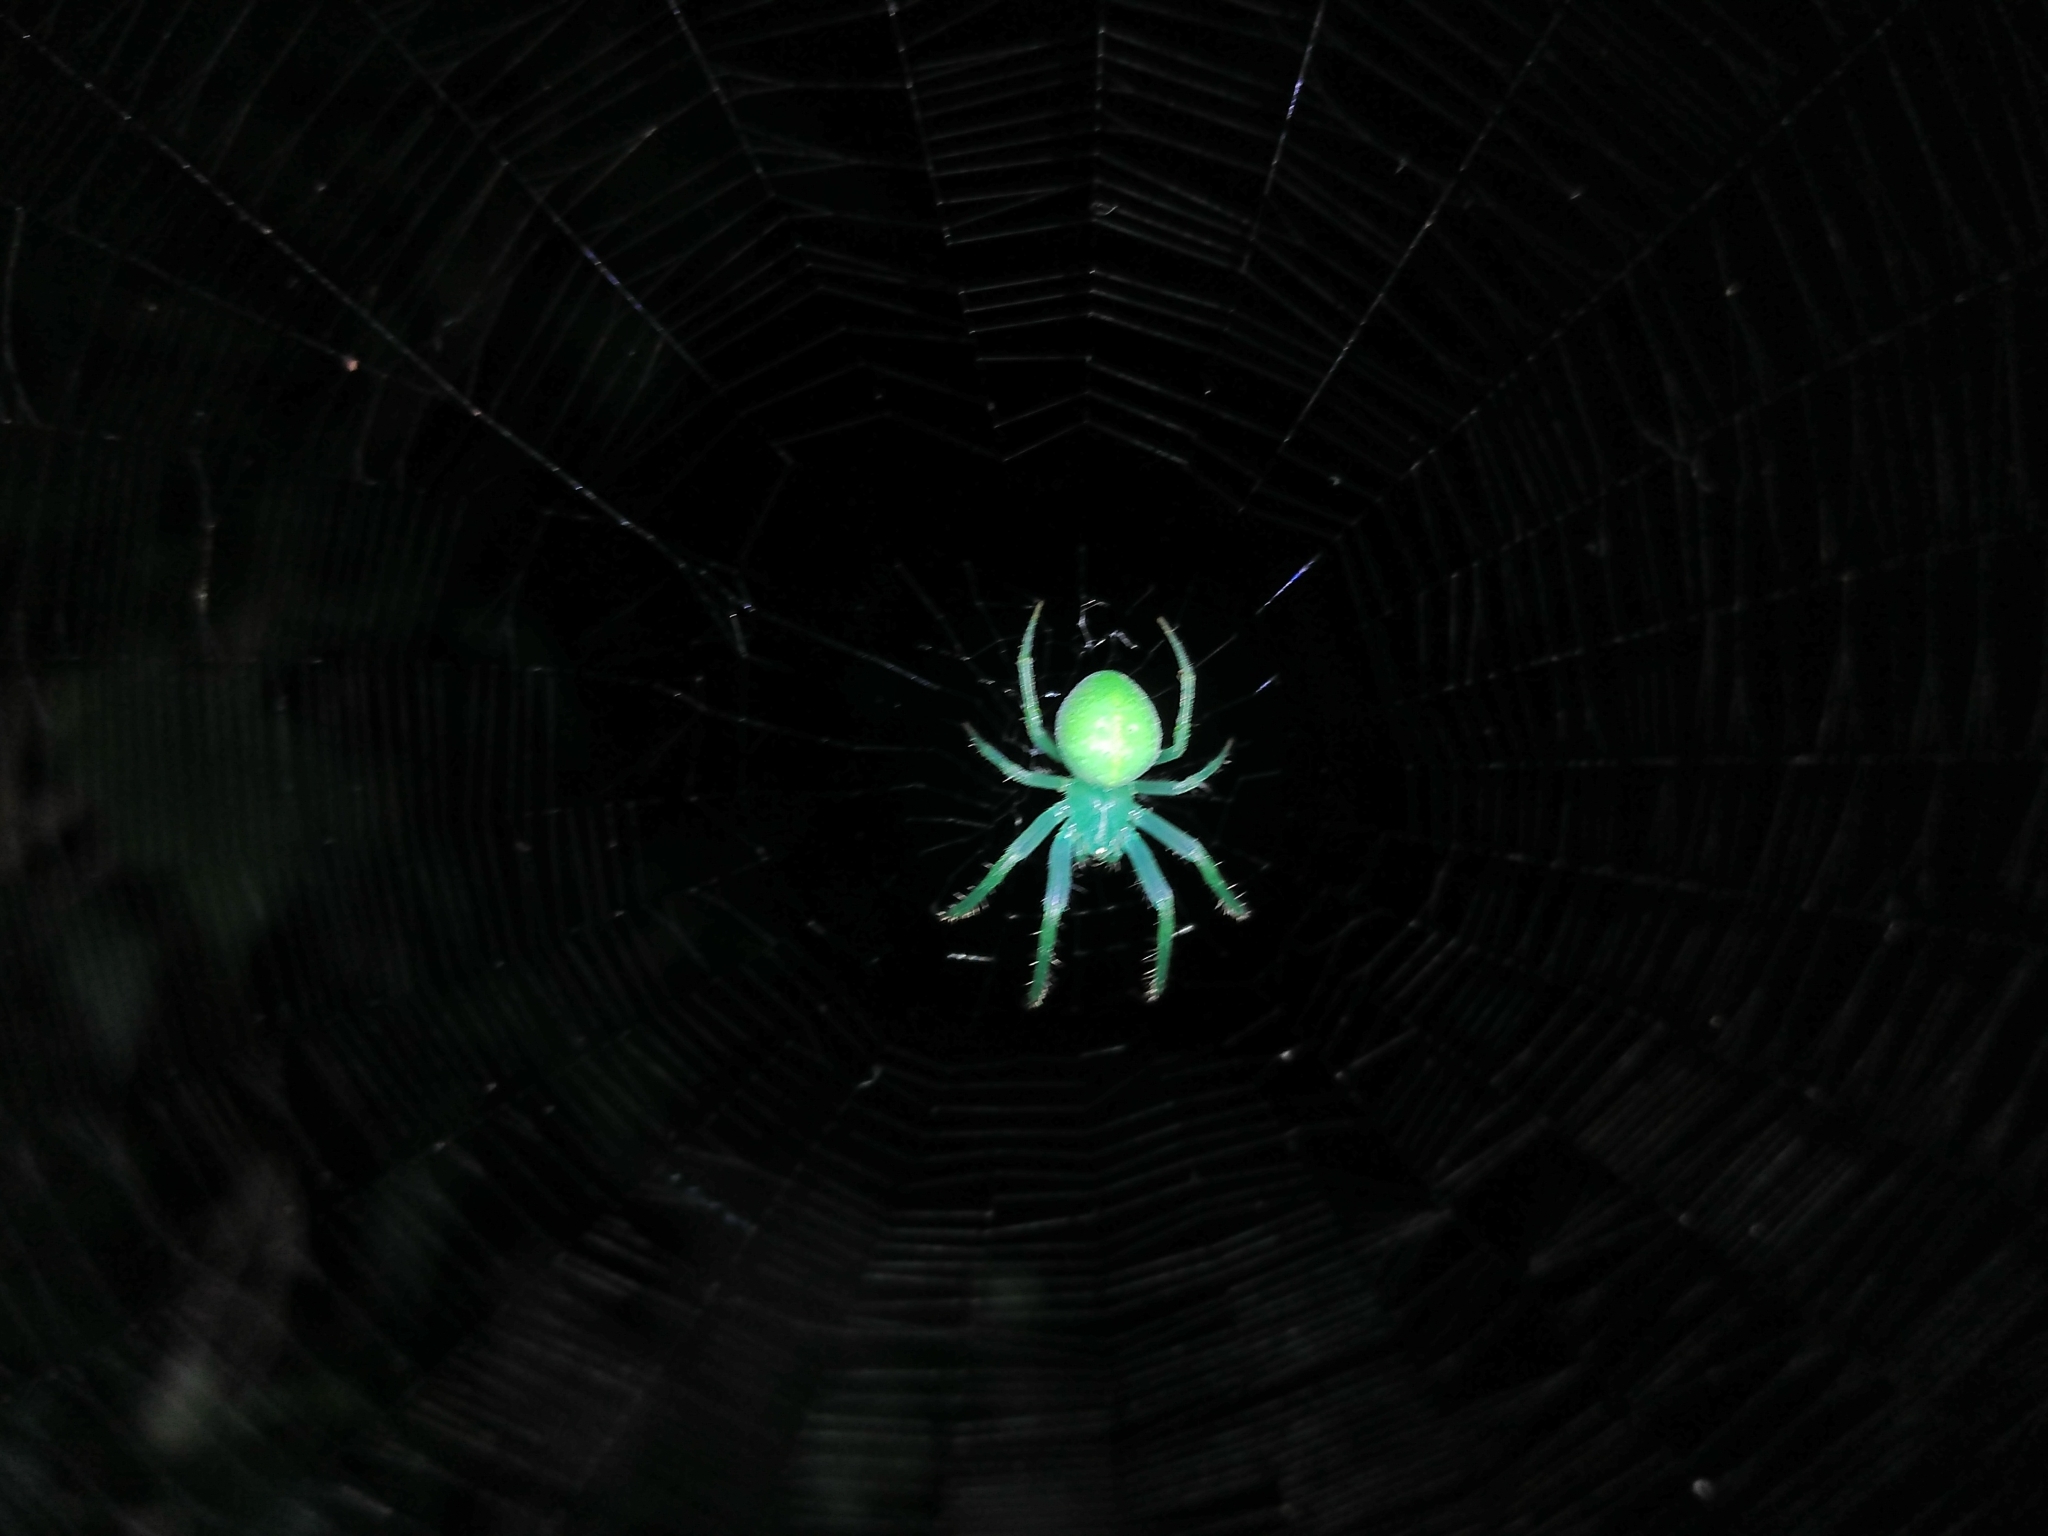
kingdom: Animalia
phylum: Arthropoda
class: Arachnida
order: Araneae
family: Araneidae
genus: Araneus
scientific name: Araneus uniformis
